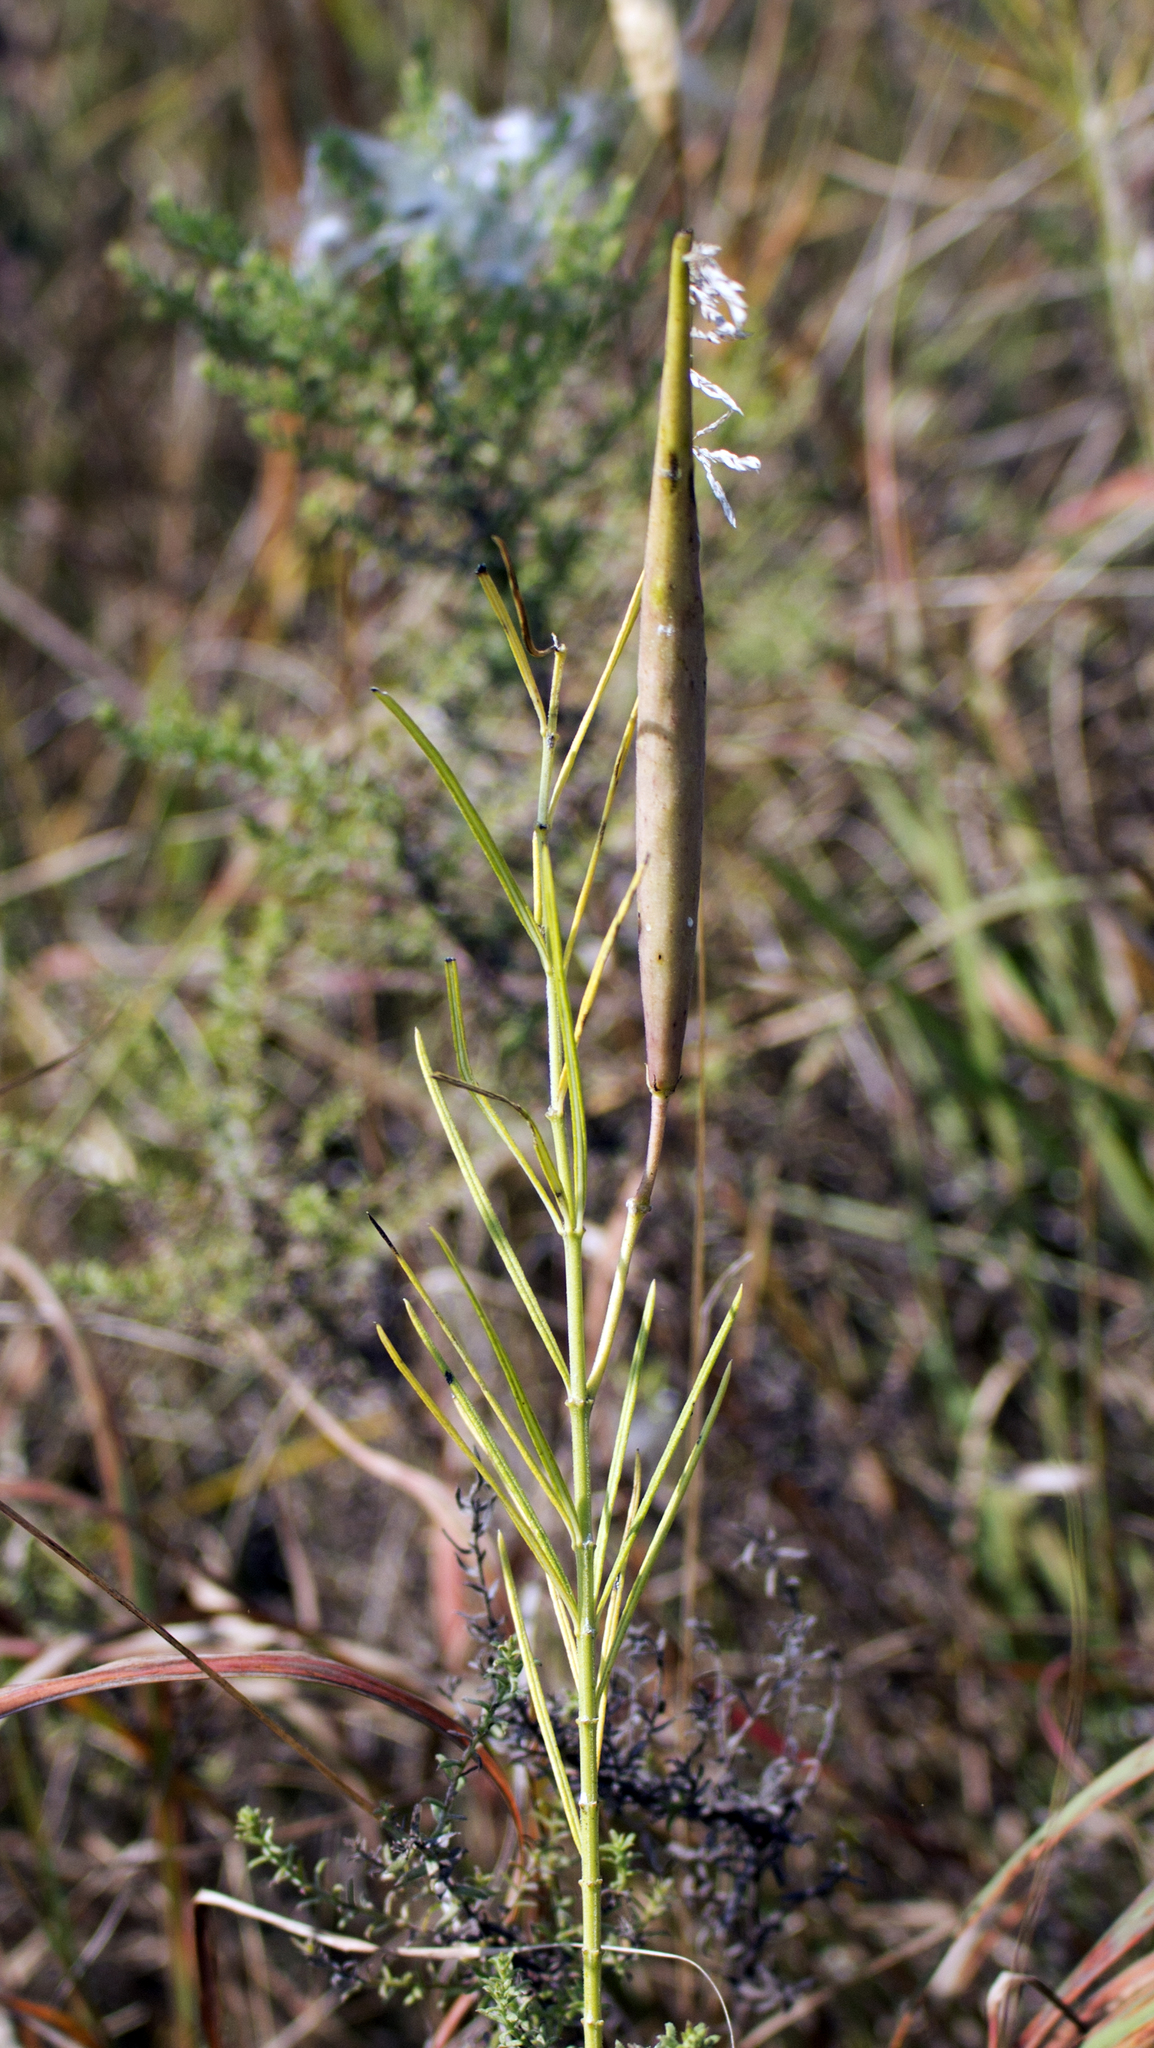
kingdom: Plantae
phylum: Tracheophyta
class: Magnoliopsida
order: Gentianales
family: Apocynaceae
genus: Asclepias
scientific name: Asclepias verticillata
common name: Eastern whorled milkweed
